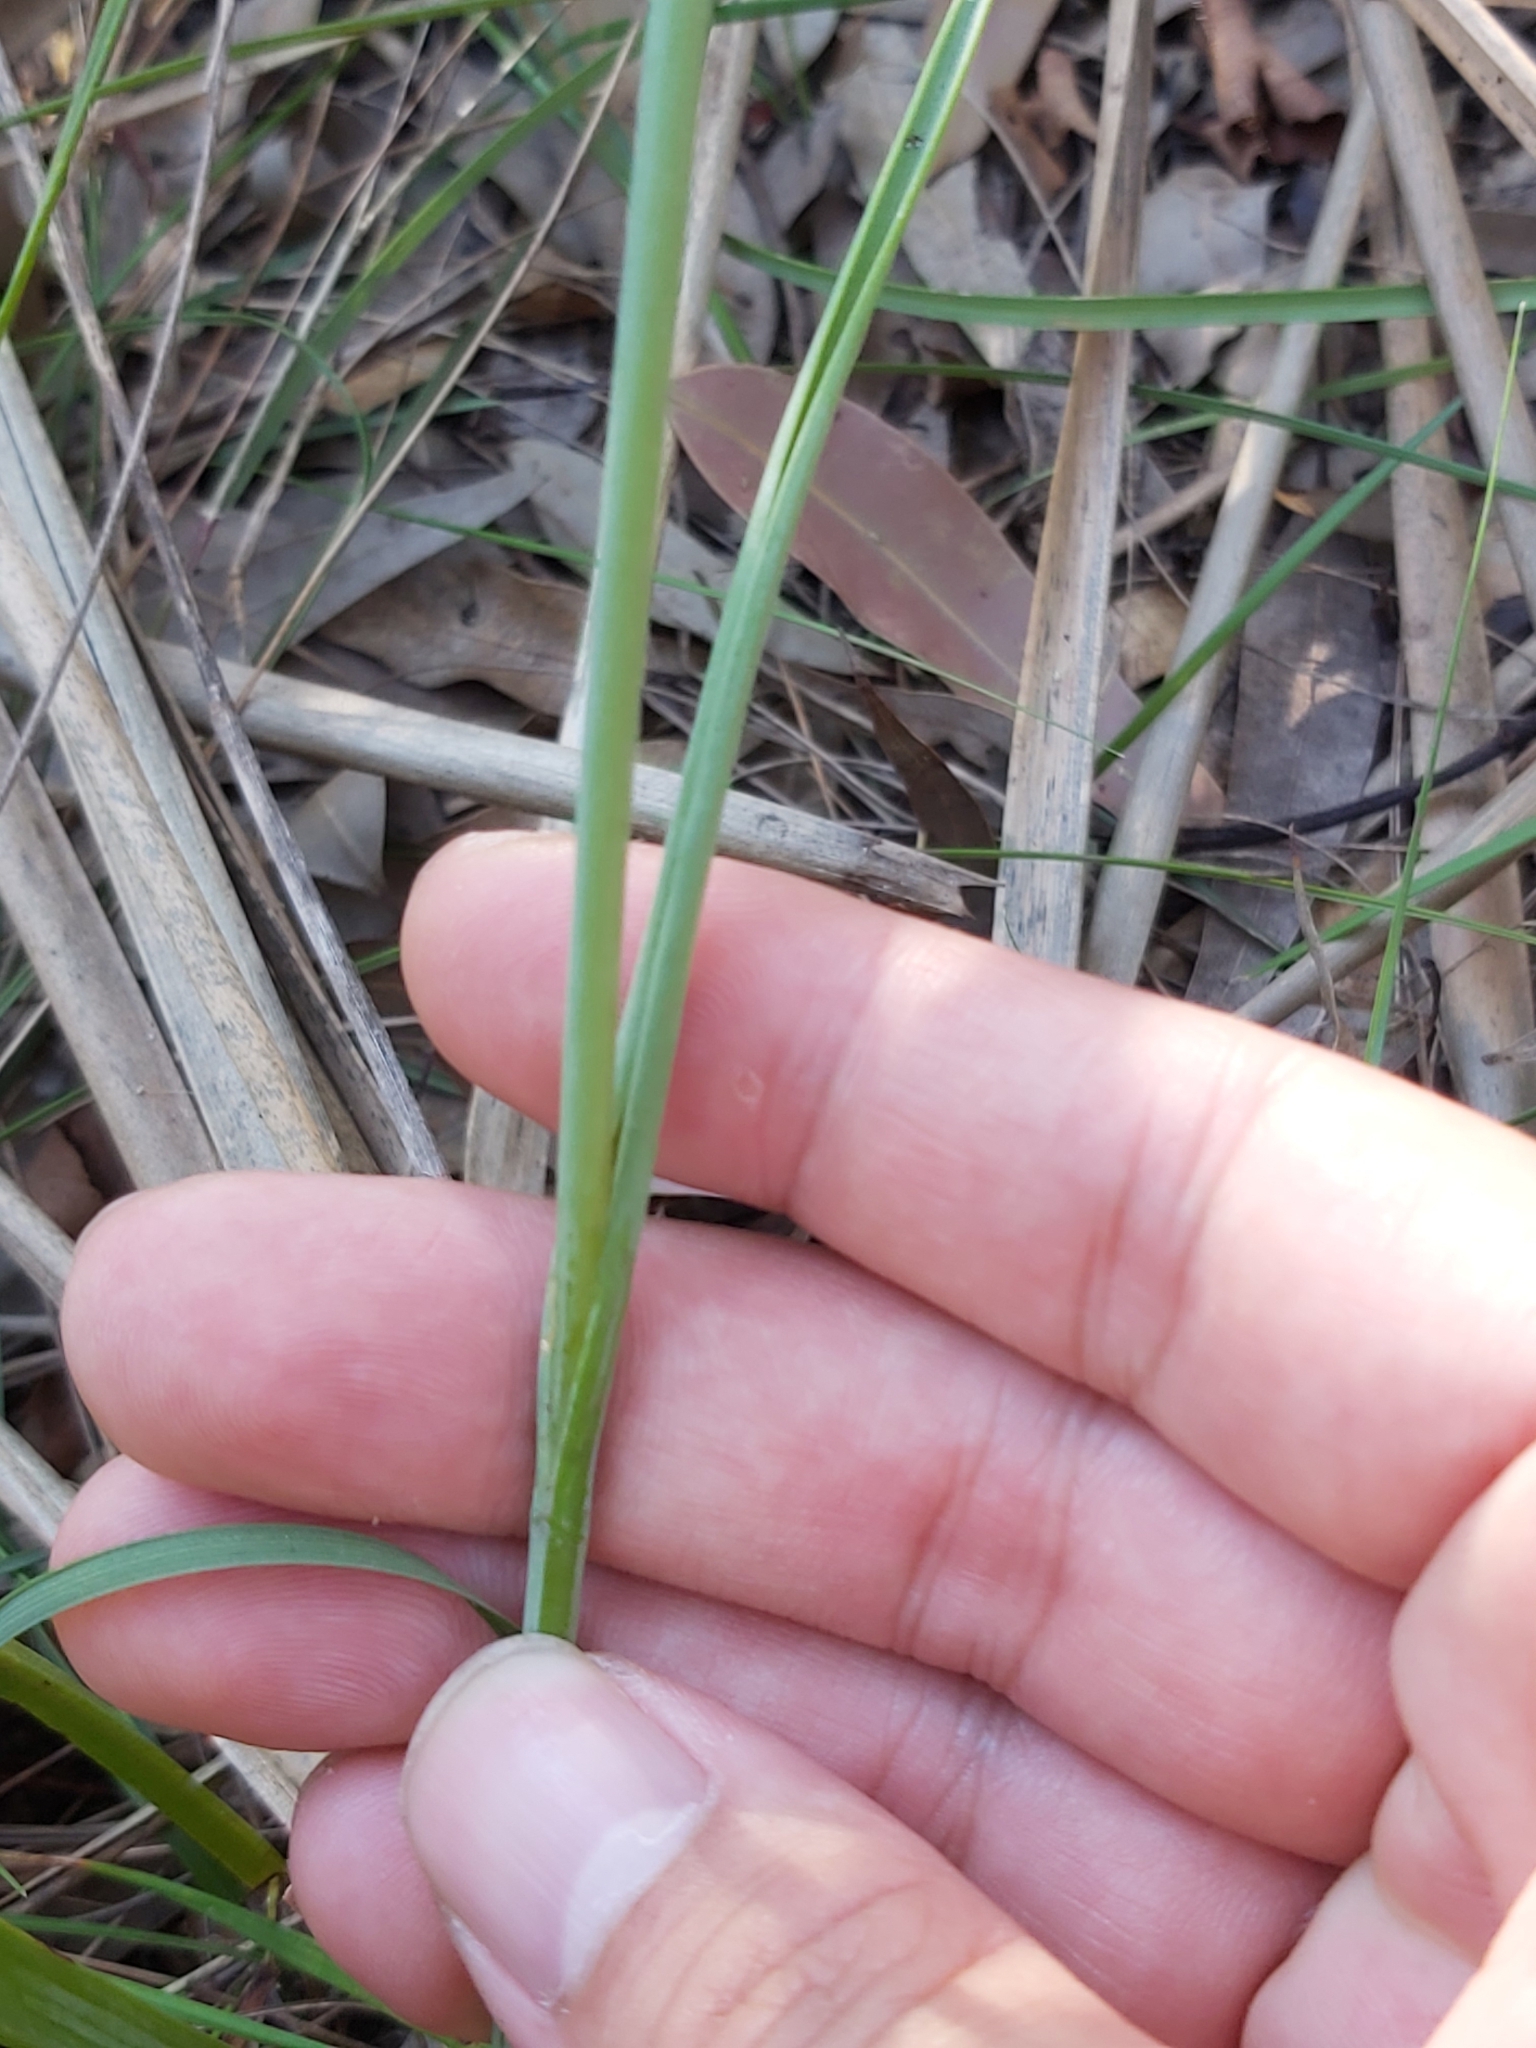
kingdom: Plantae
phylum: Tracheophyta
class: Liliopsida
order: Asparagales
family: Orchidaceae
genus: Calochilus
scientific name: Calochilus gracillimus
